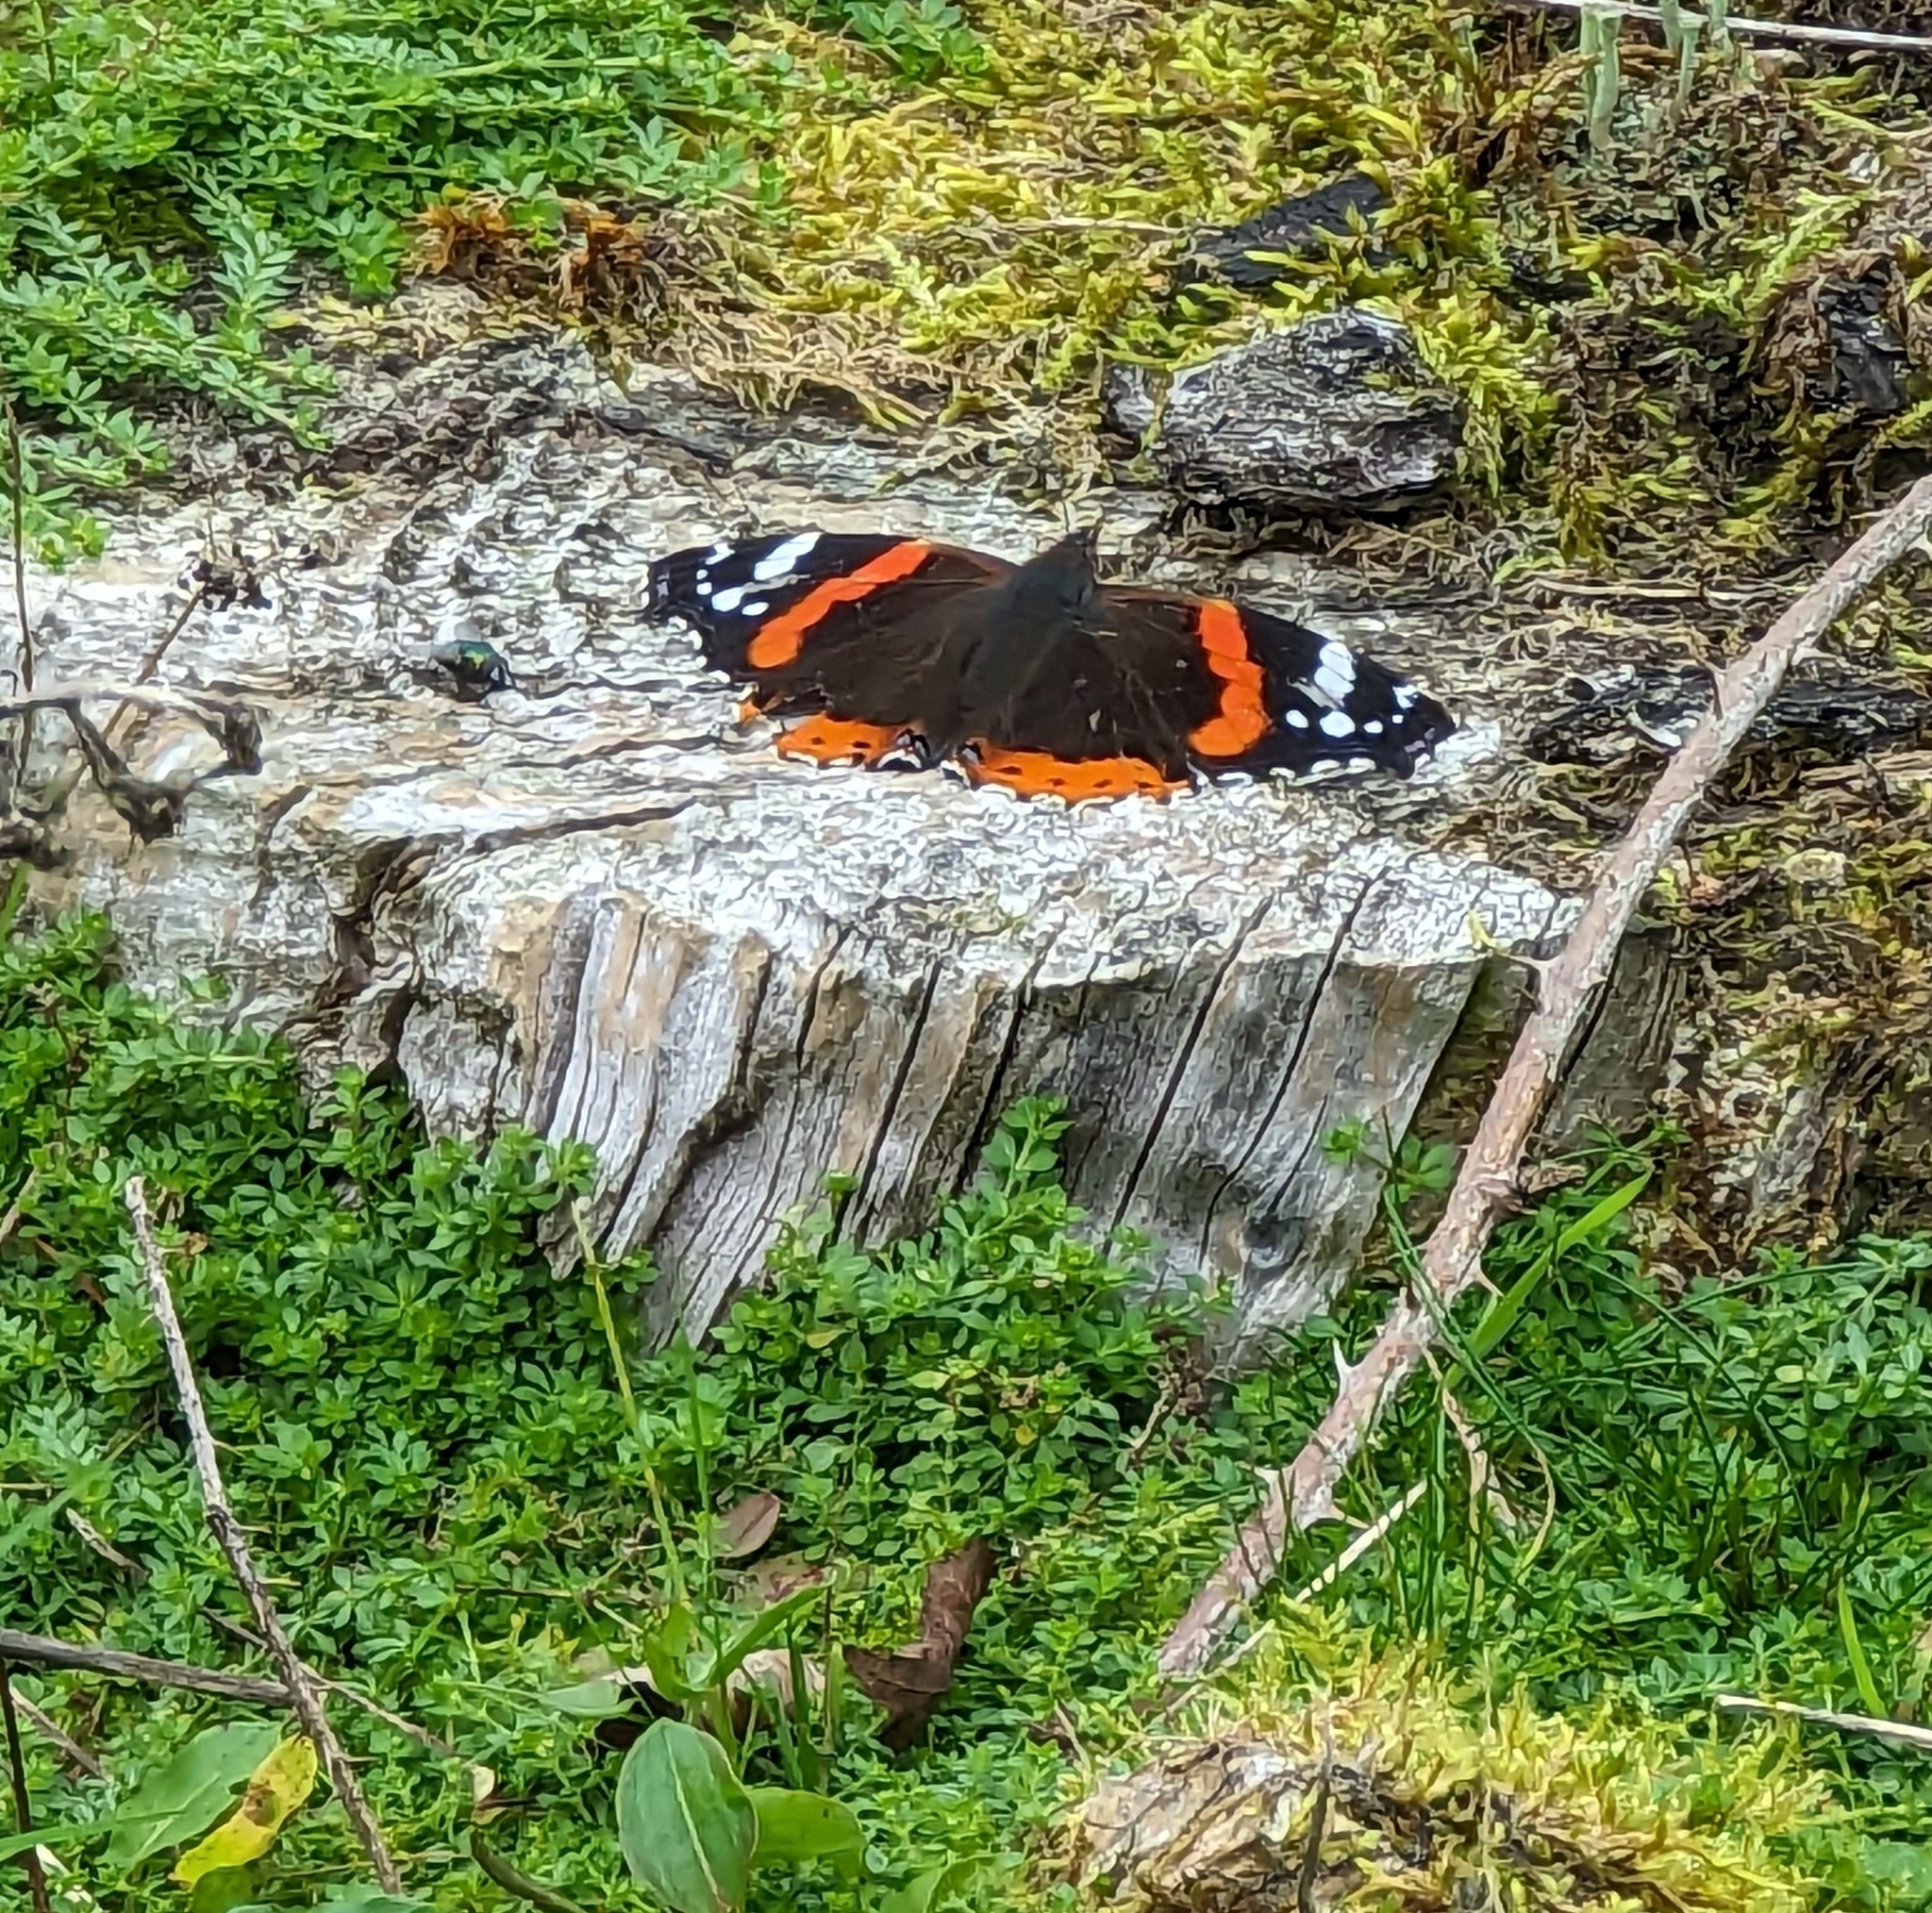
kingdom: Animalia
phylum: Arthropoda
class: Insecta
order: Lepidoptera
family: Nymphalidae
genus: Vanessa
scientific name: Vanessa atalanta
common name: Red admiral
